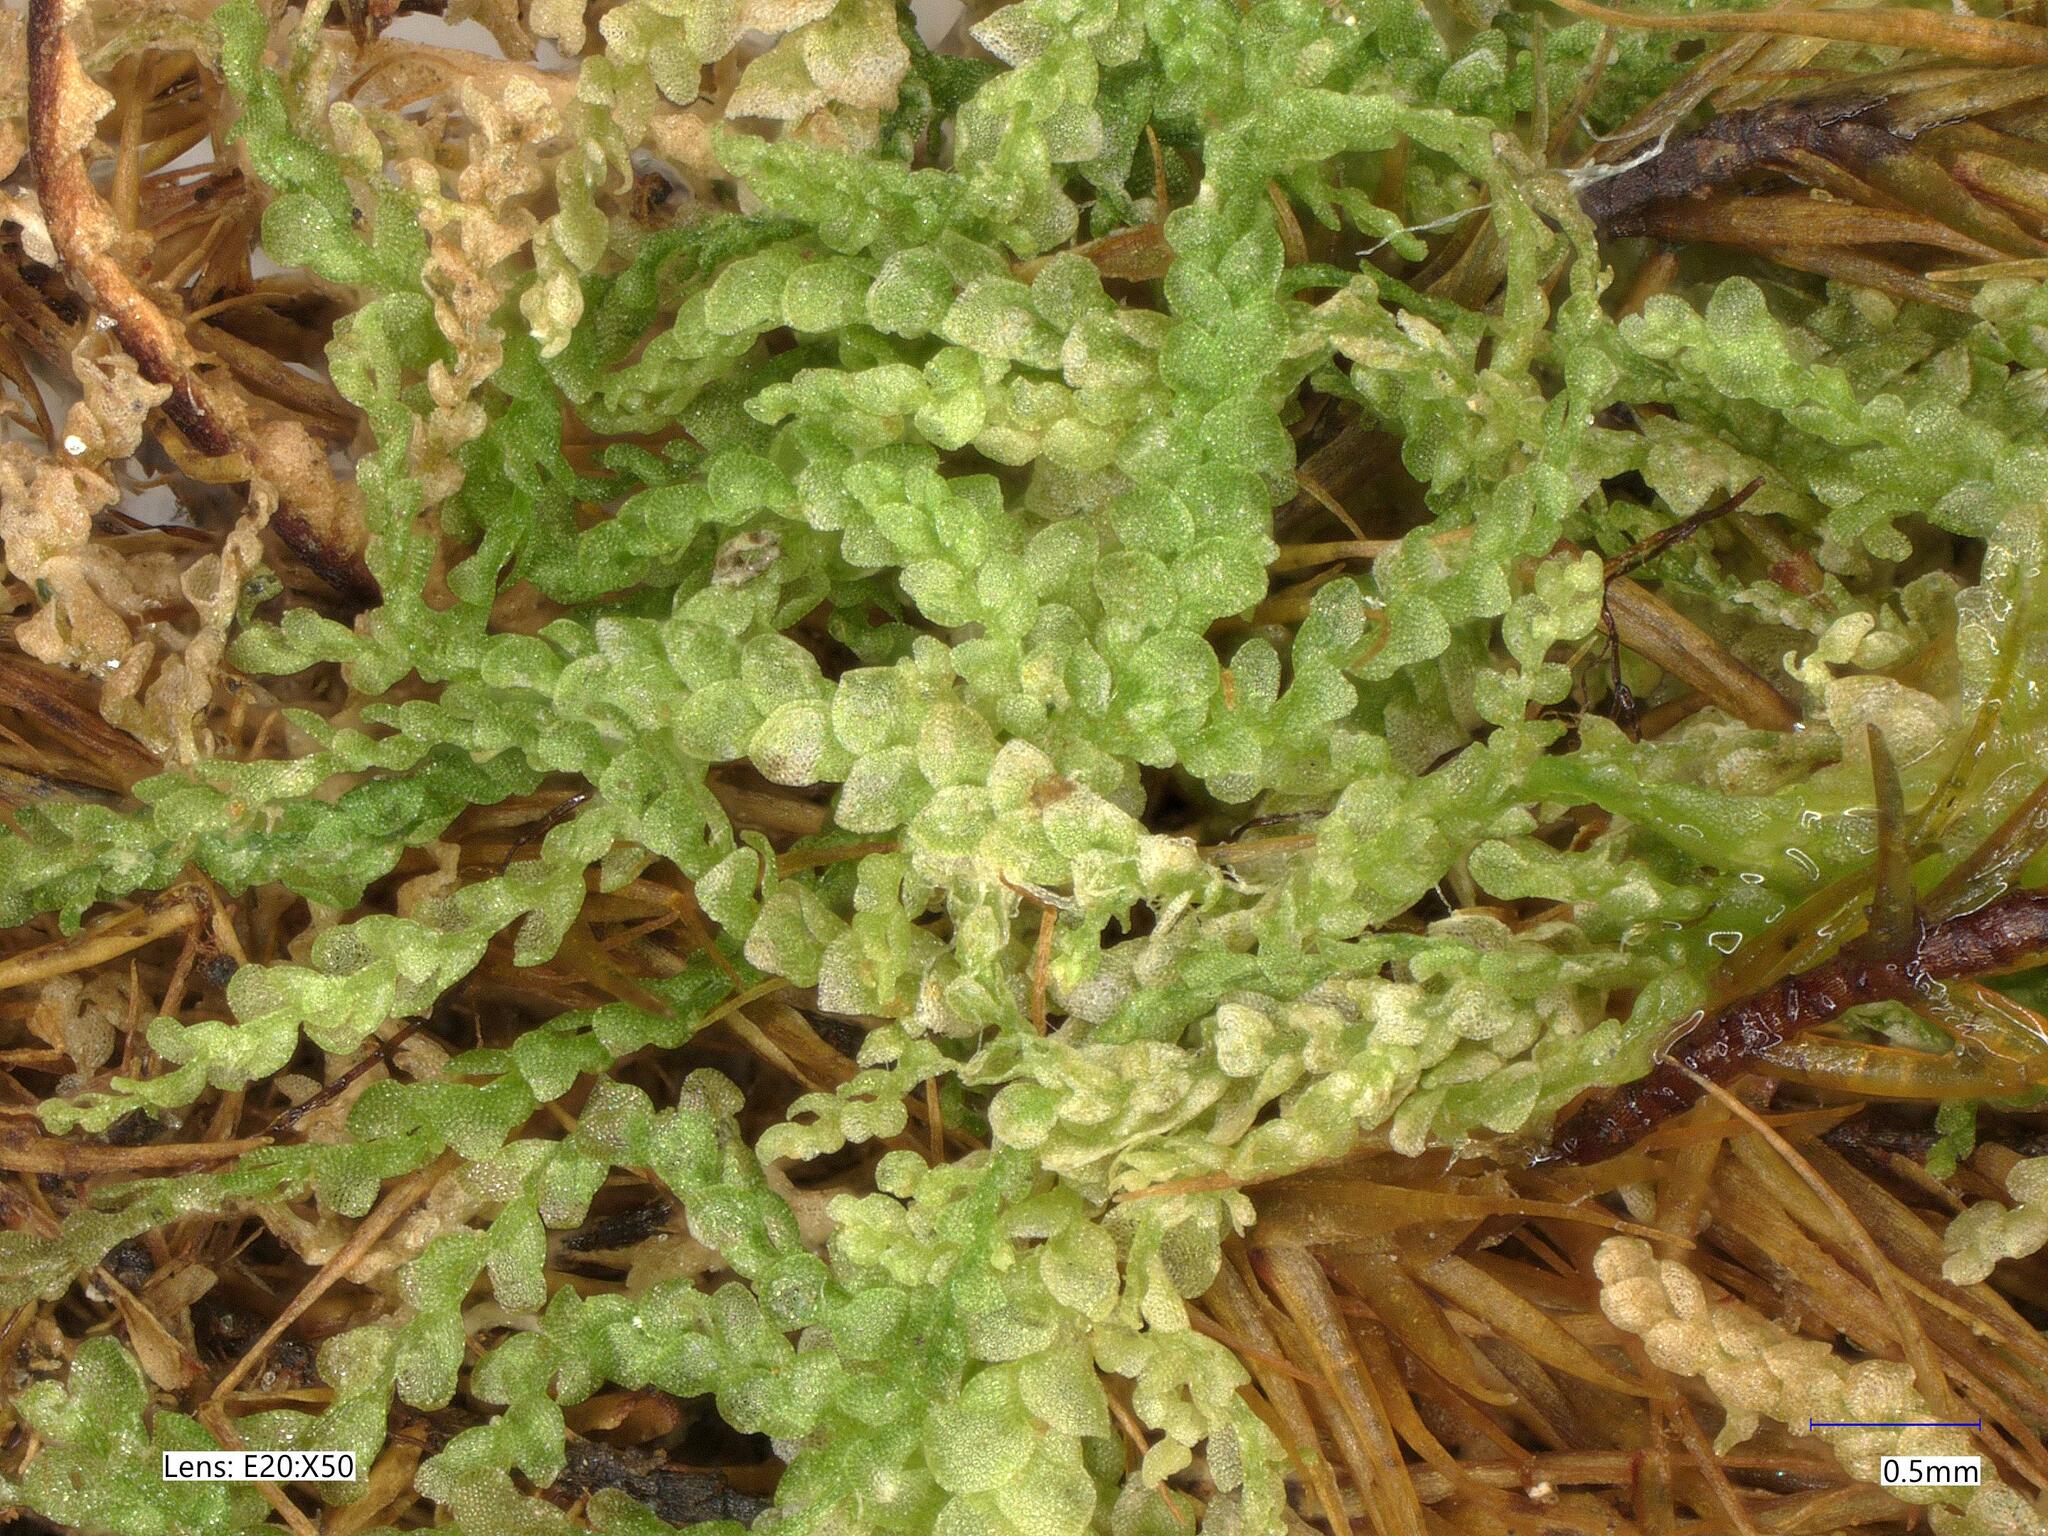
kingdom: Plantae
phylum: Marchantiophyta
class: Jungermanniopsida
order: Porellales
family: Lejeuneaceae
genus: Lejeunea
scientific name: Lejeunea cavifolia
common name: Least pouncewort
